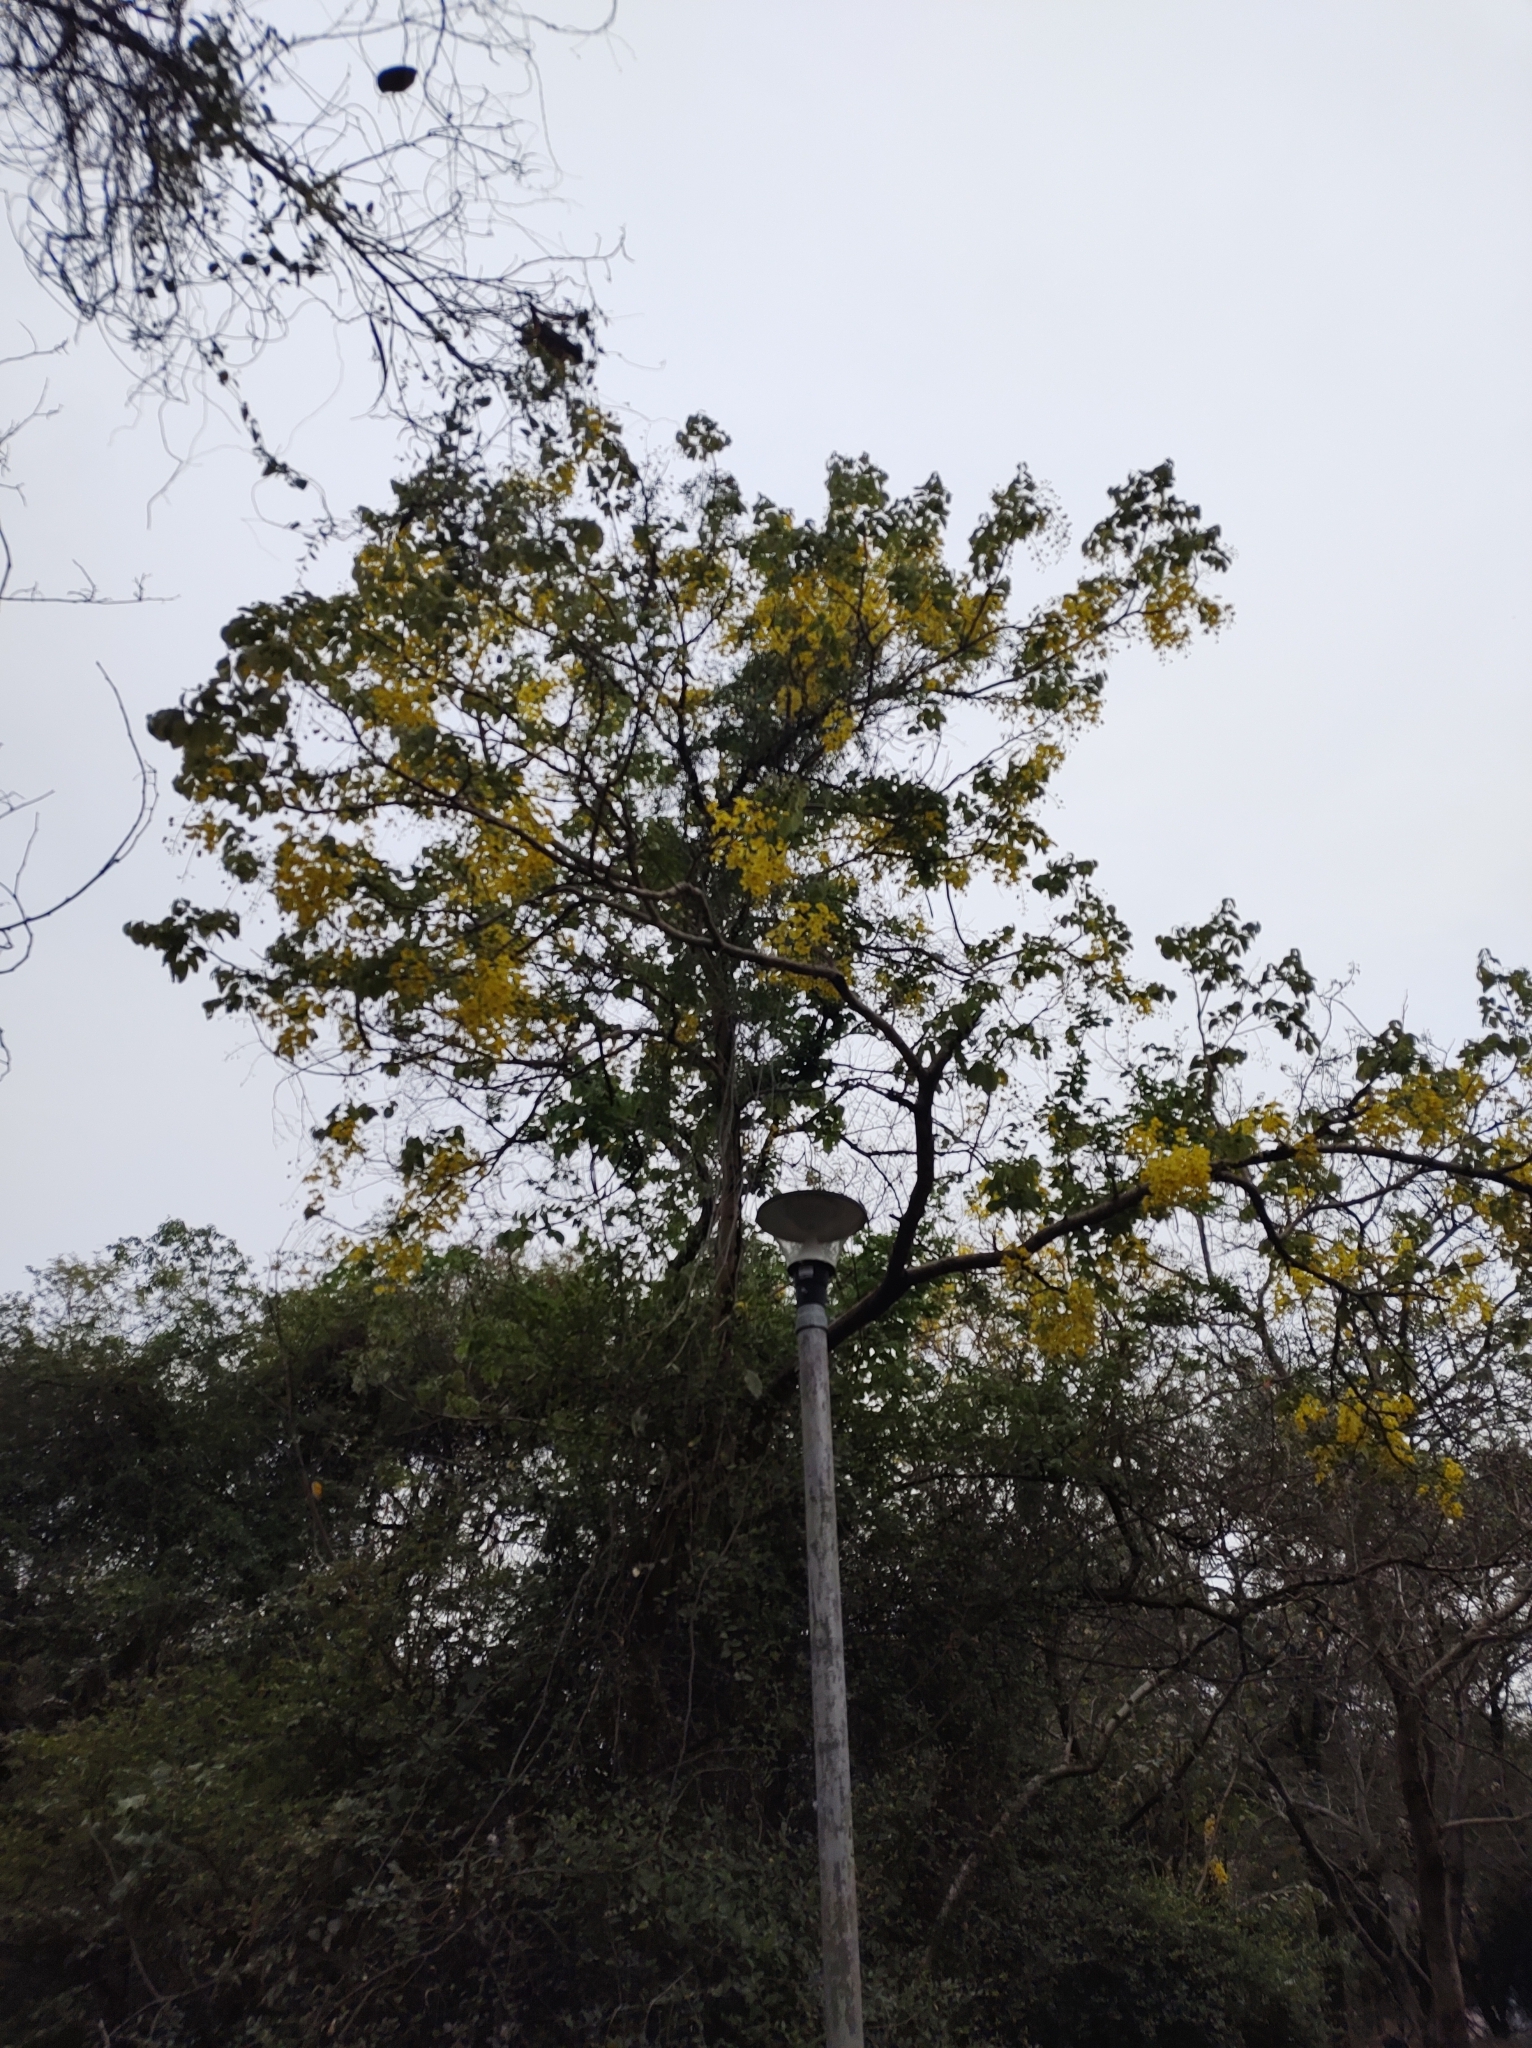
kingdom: Plantae
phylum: Tracheophyta
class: Magnoliopsida
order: Fabales
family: Fabaceae
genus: Cassia
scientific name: Cassia fistula
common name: Golden shower
